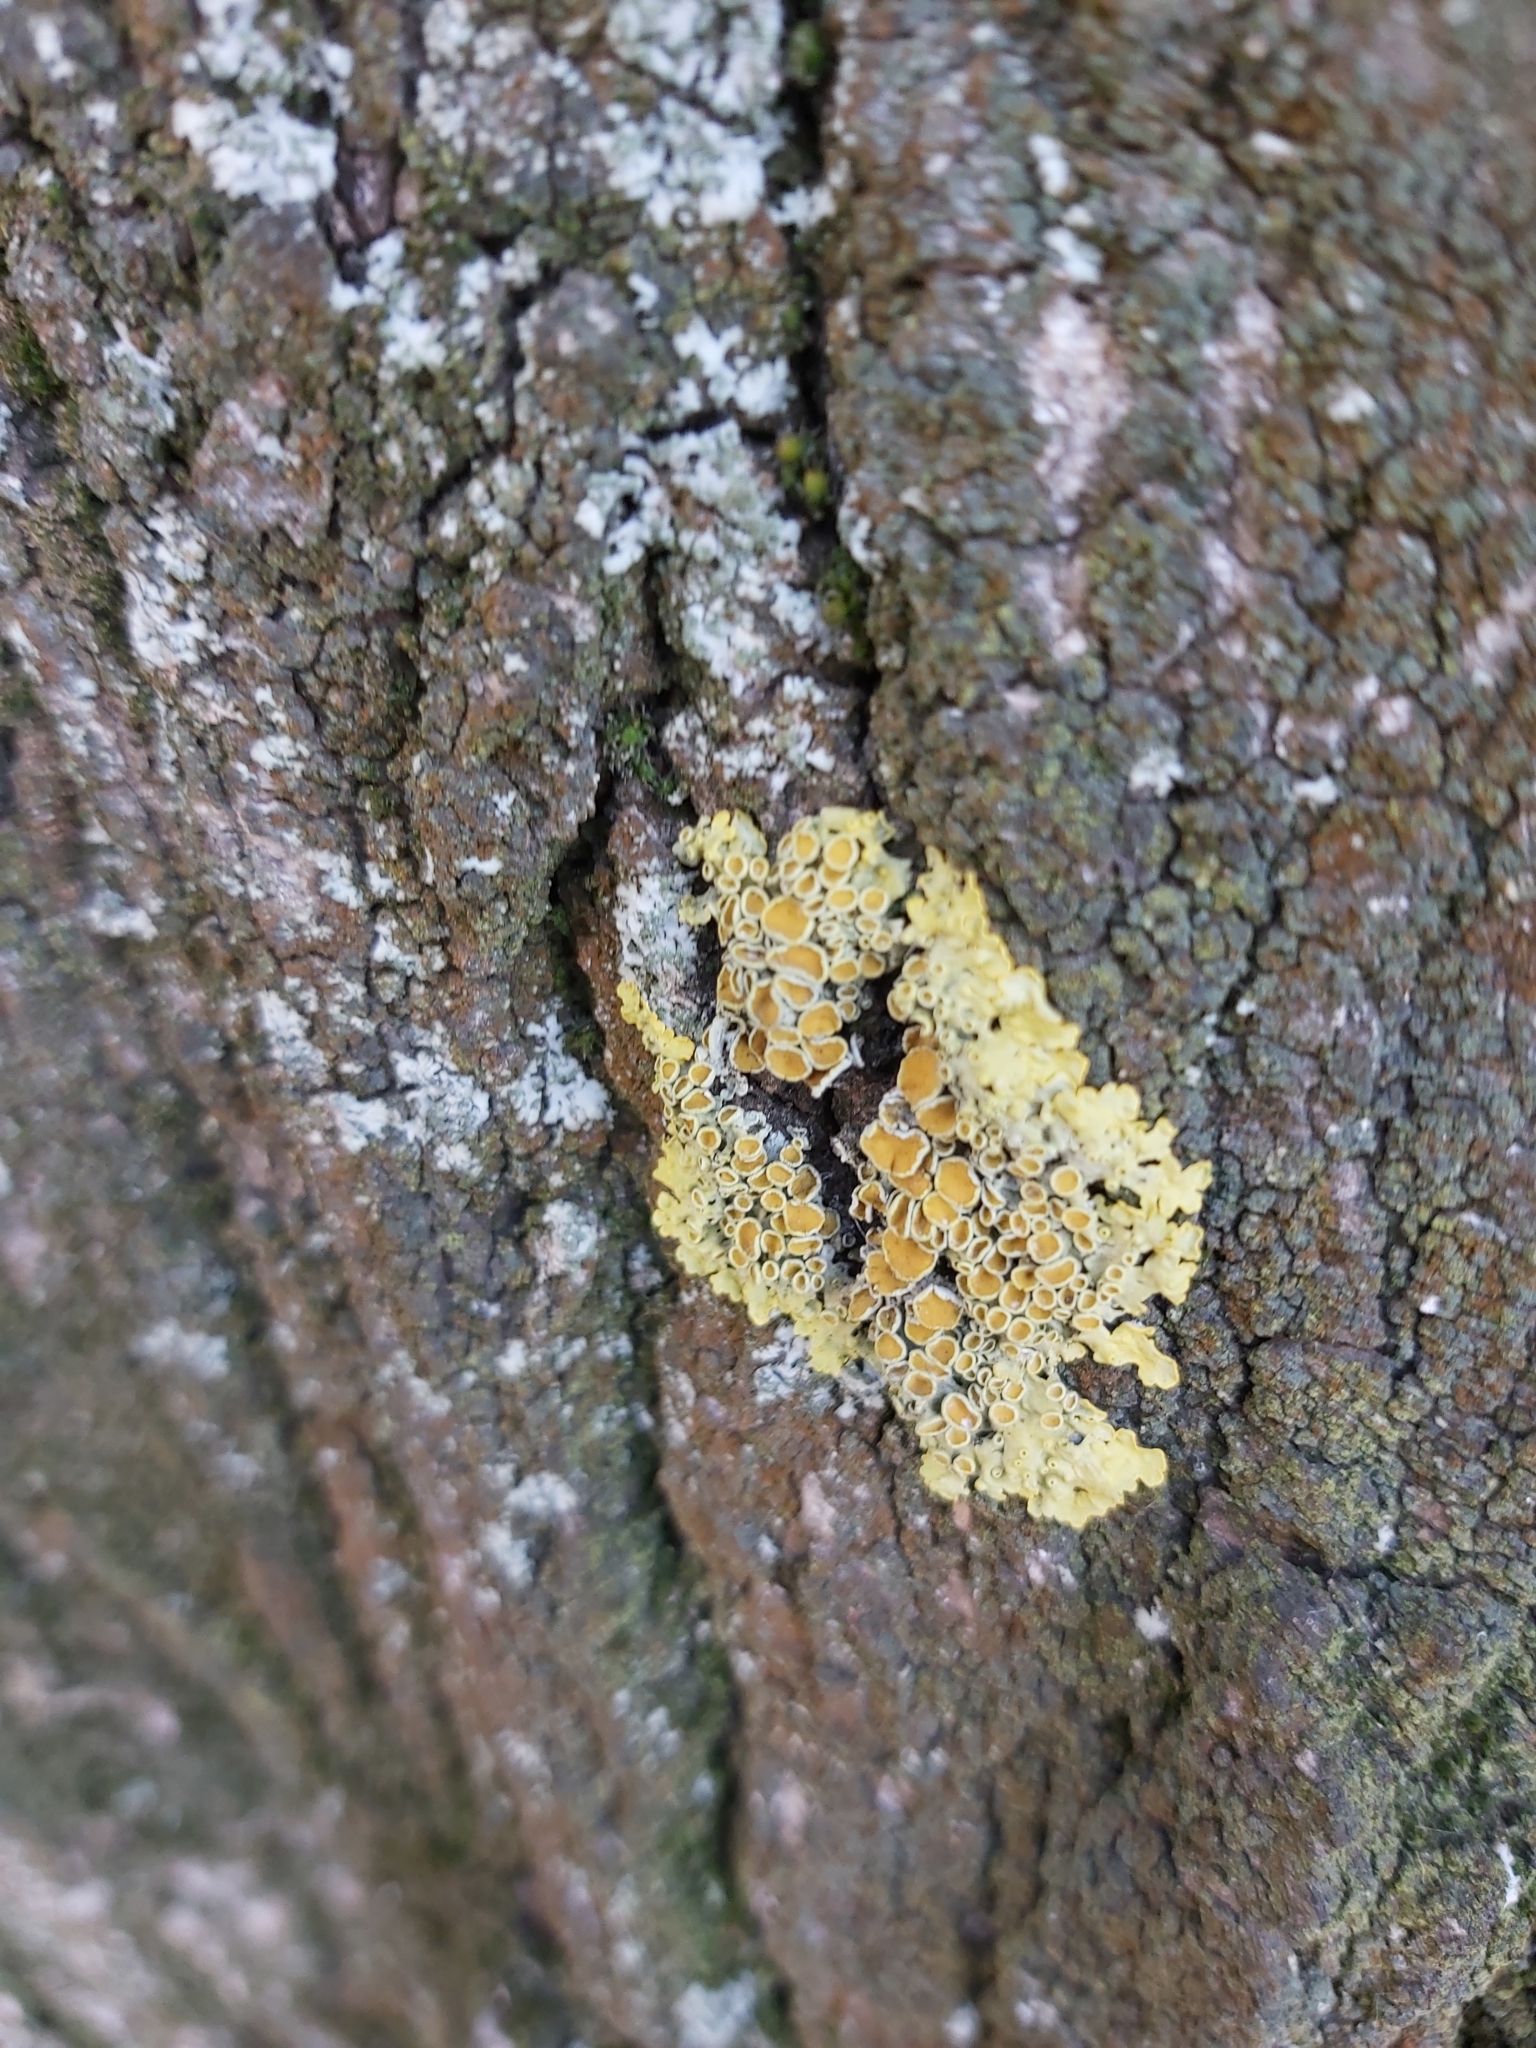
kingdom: Fungi
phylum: Ascomycota
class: Lecanoromycetes
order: Teloschistales
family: Teloschistaceae
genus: Xanthoria
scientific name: Xanthoria parietina
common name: Common orange lichen
